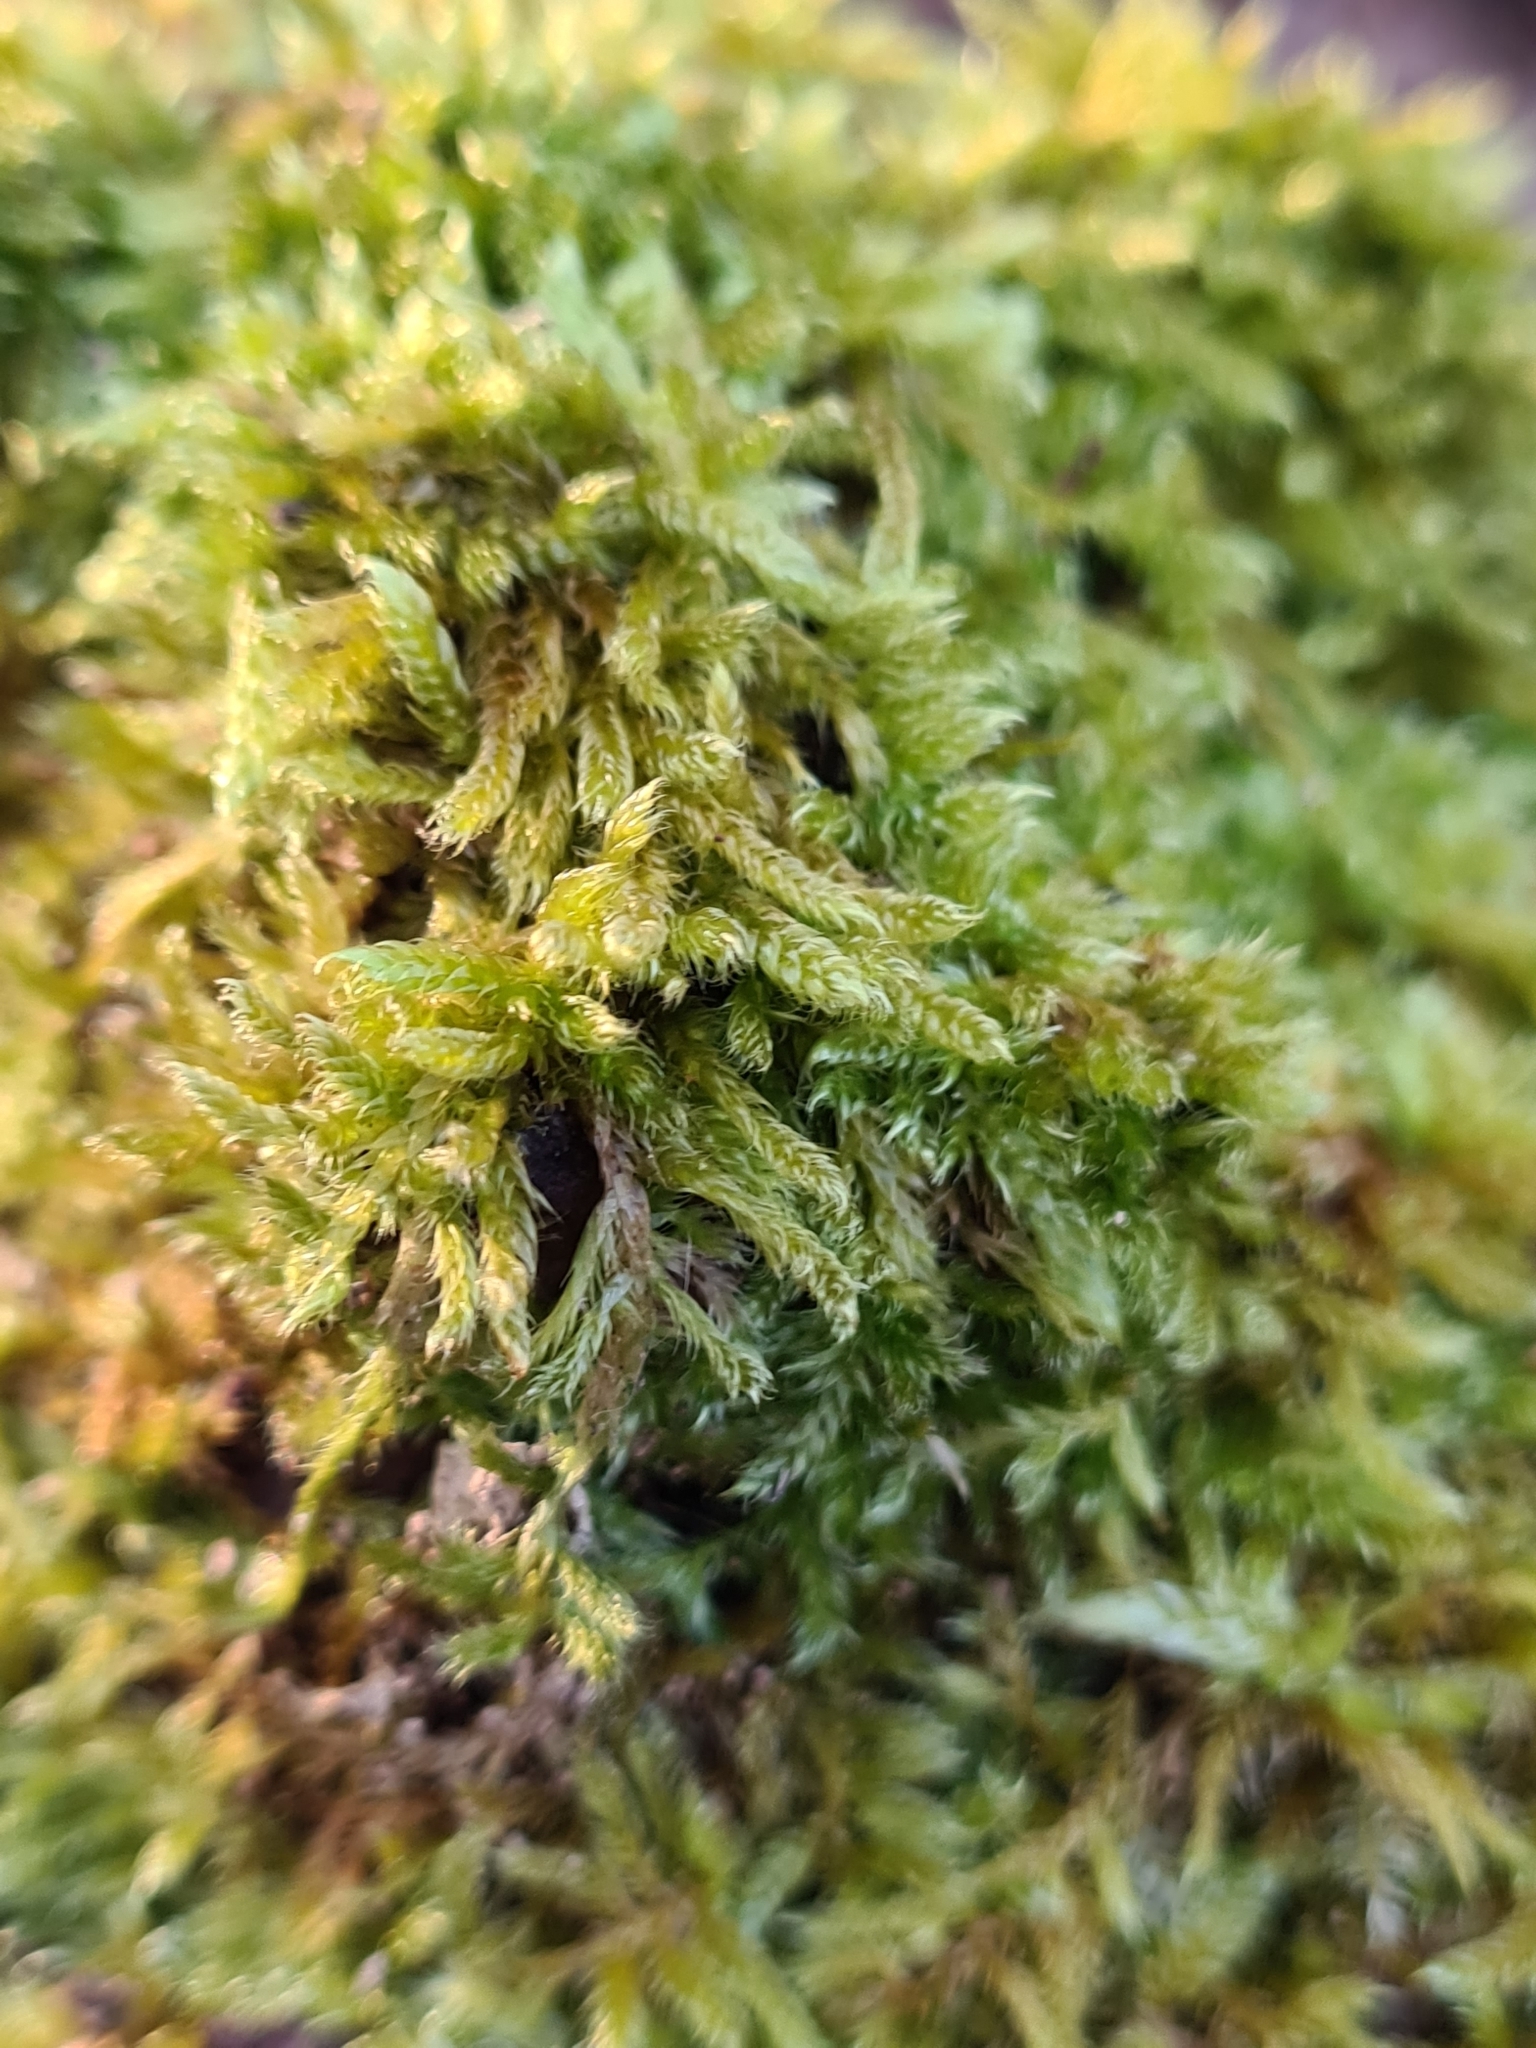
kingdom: Plantae
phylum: Bryophyta
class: Bryopsida
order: Hypnales
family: Hypnaceae
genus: Hypnum
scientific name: Hypnum cupressiforme
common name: Cypress-leaved plait-moss
